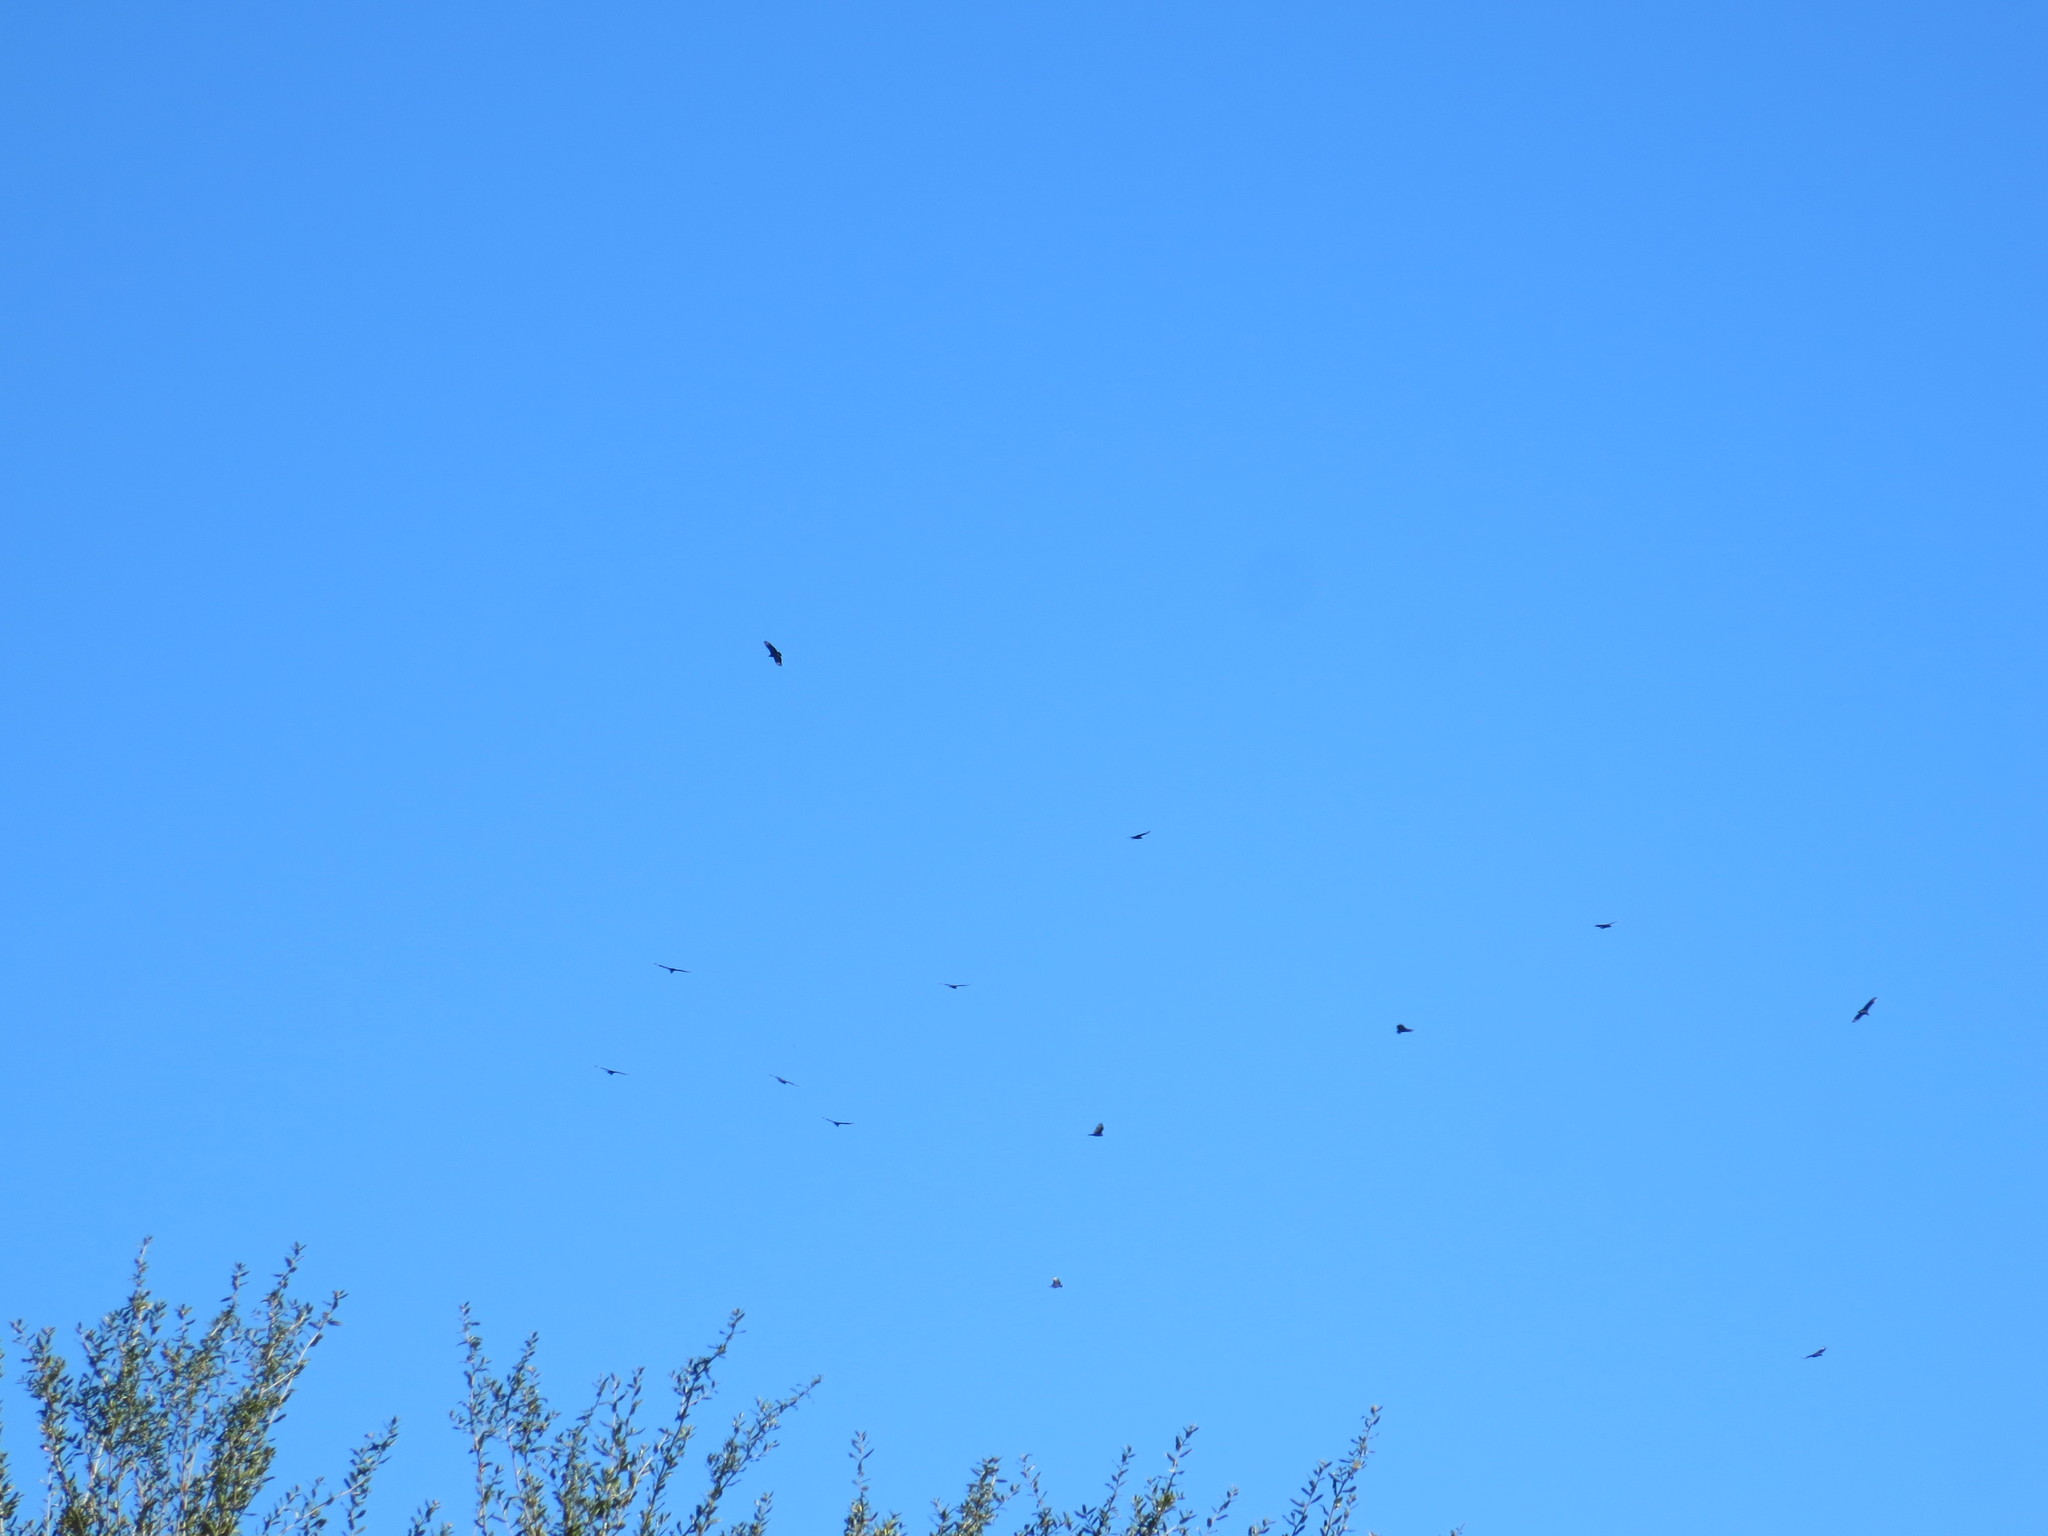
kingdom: Animalia
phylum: Chordata
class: Aves
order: Accipitriformes
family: Cathartidae
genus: Coragyps
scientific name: Coragyps atratus
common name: Black vulture
